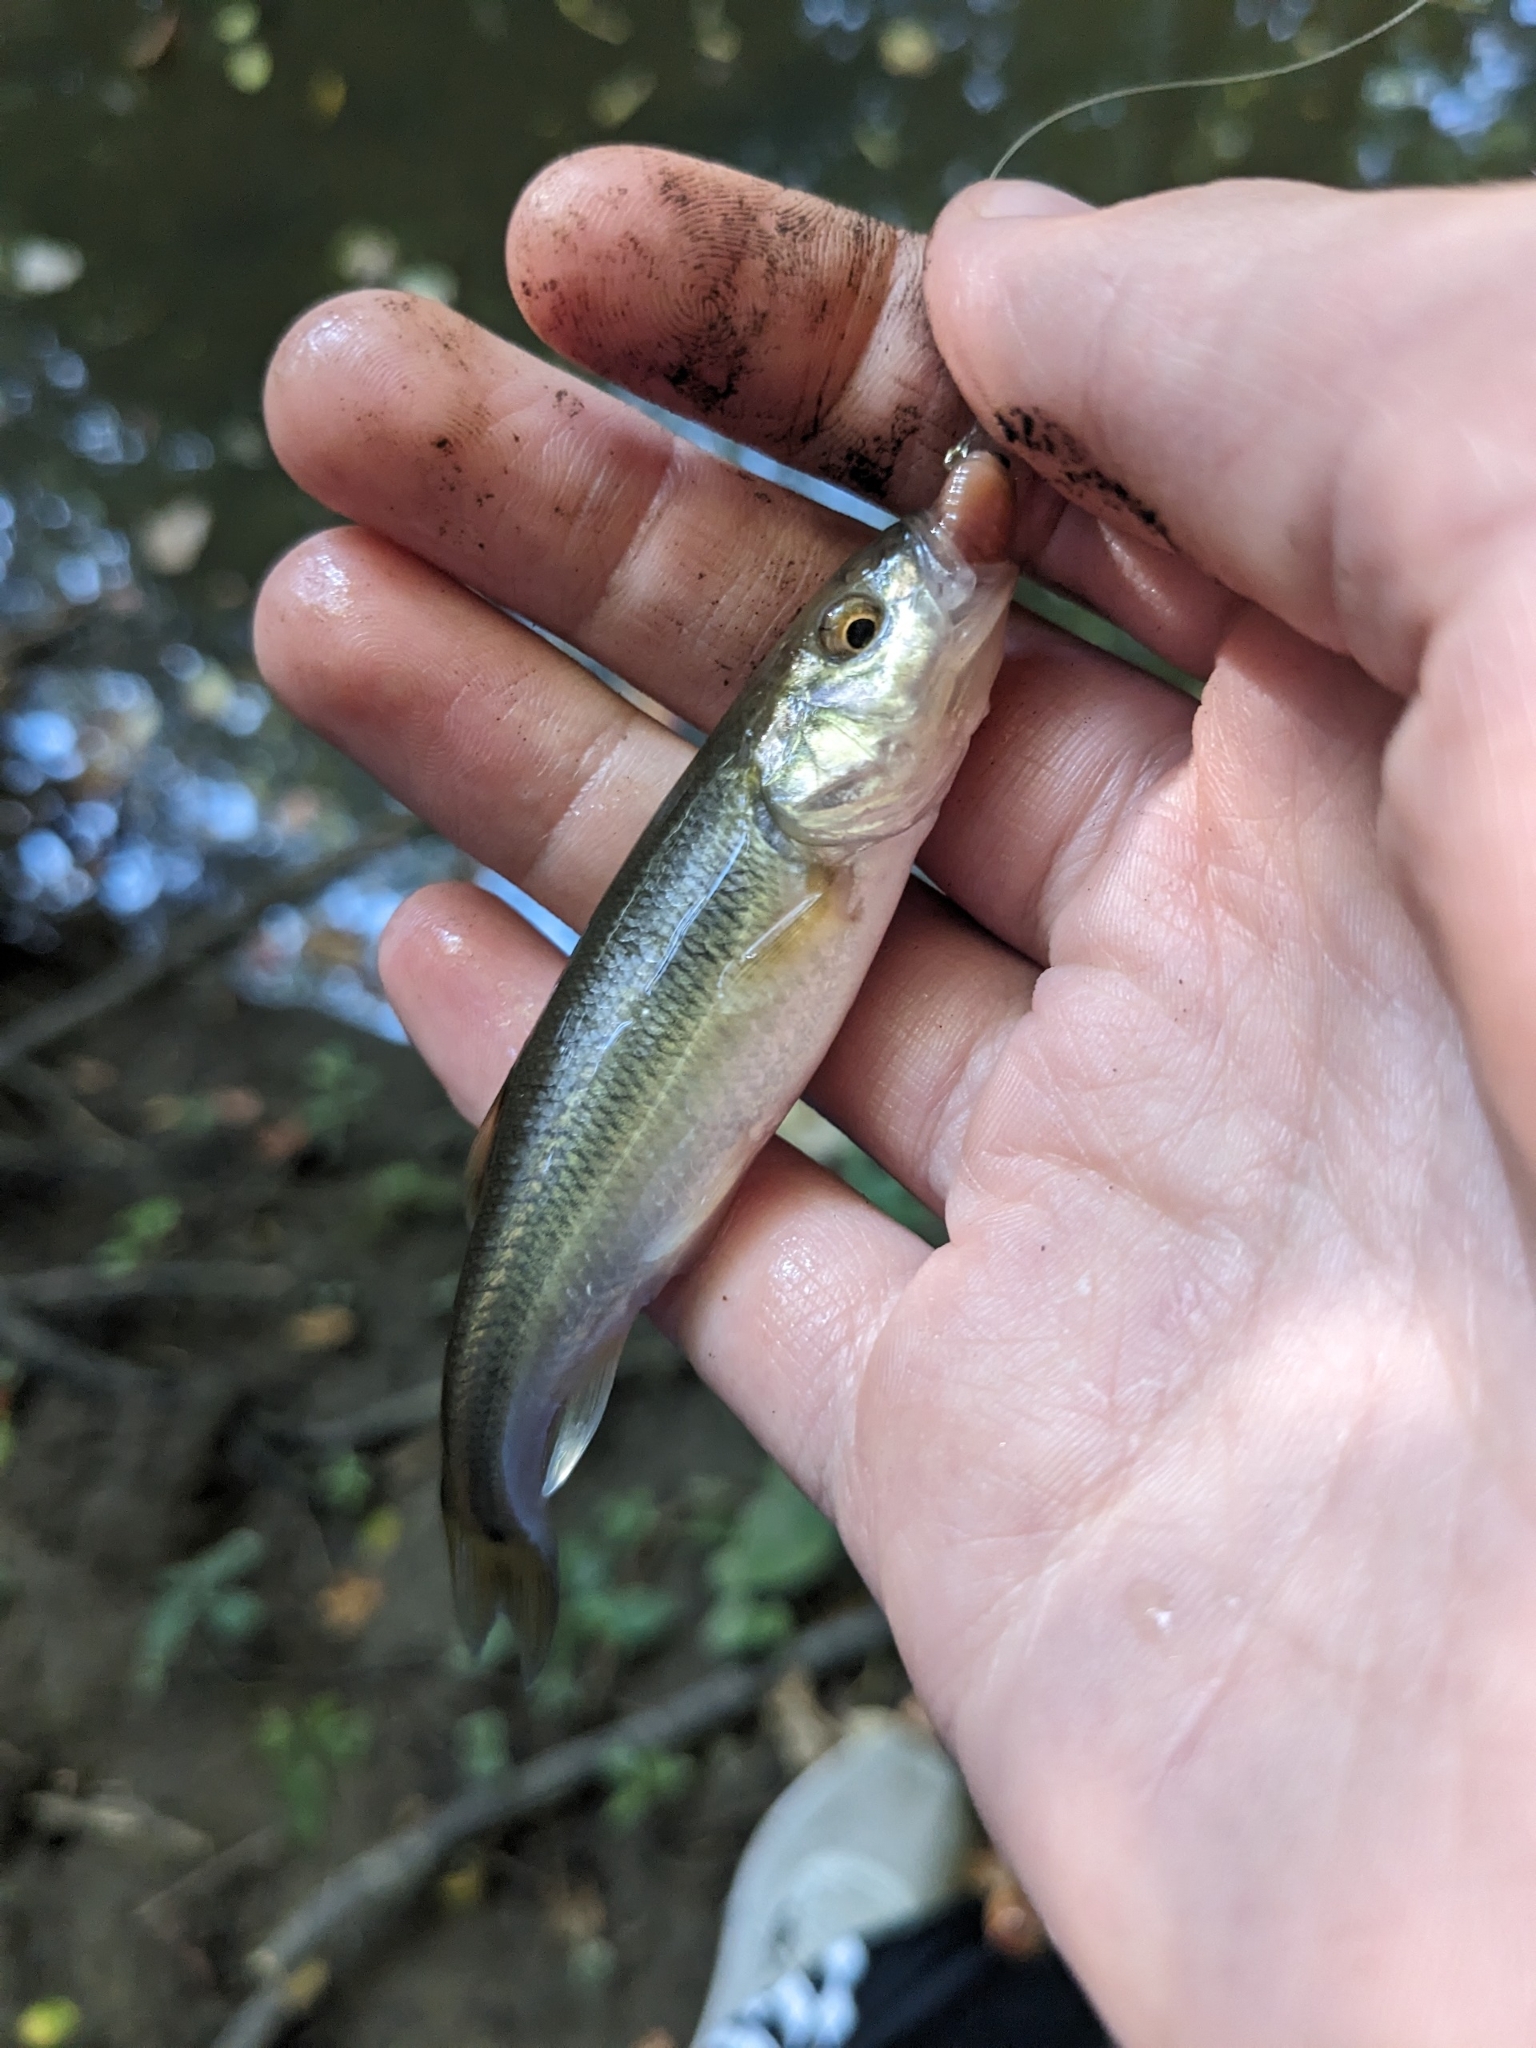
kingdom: Animalia
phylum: Chordata
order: Cypriniformes
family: Cyprinidae
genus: Semotilus
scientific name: Semotilus atromaculatus
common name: Creek chub
